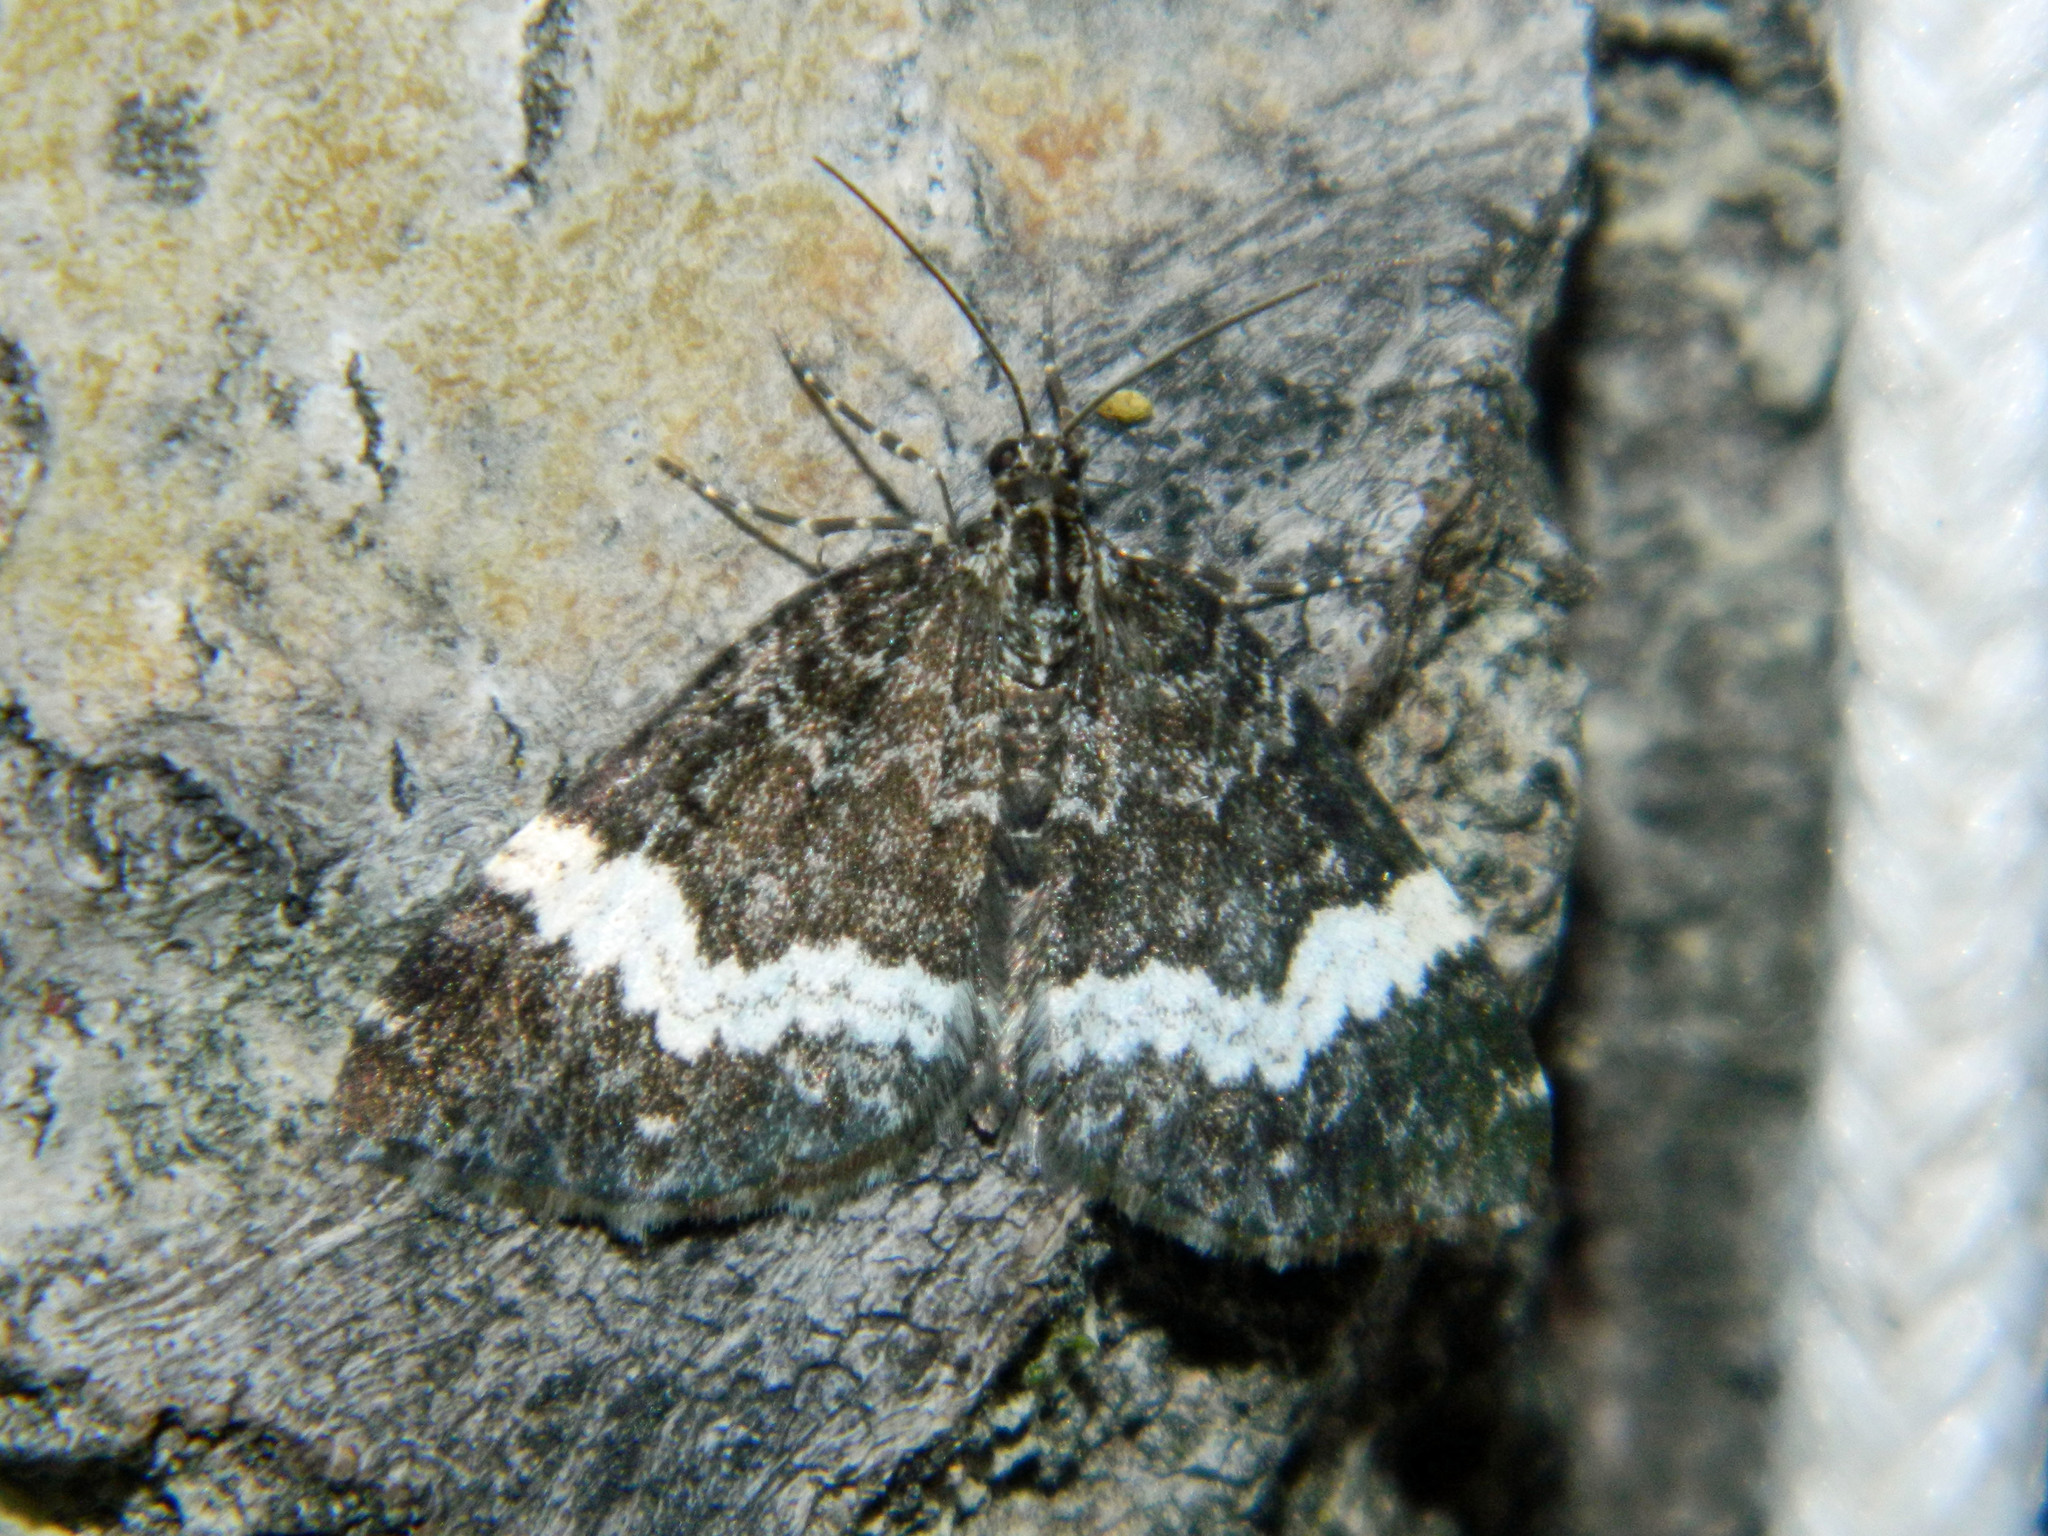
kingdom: Animalia
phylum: Arthropoda
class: Insecta
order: Lepidoptera
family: Geometridae
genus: Spargania
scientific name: Spargania luctuata
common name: White-banded carpet
